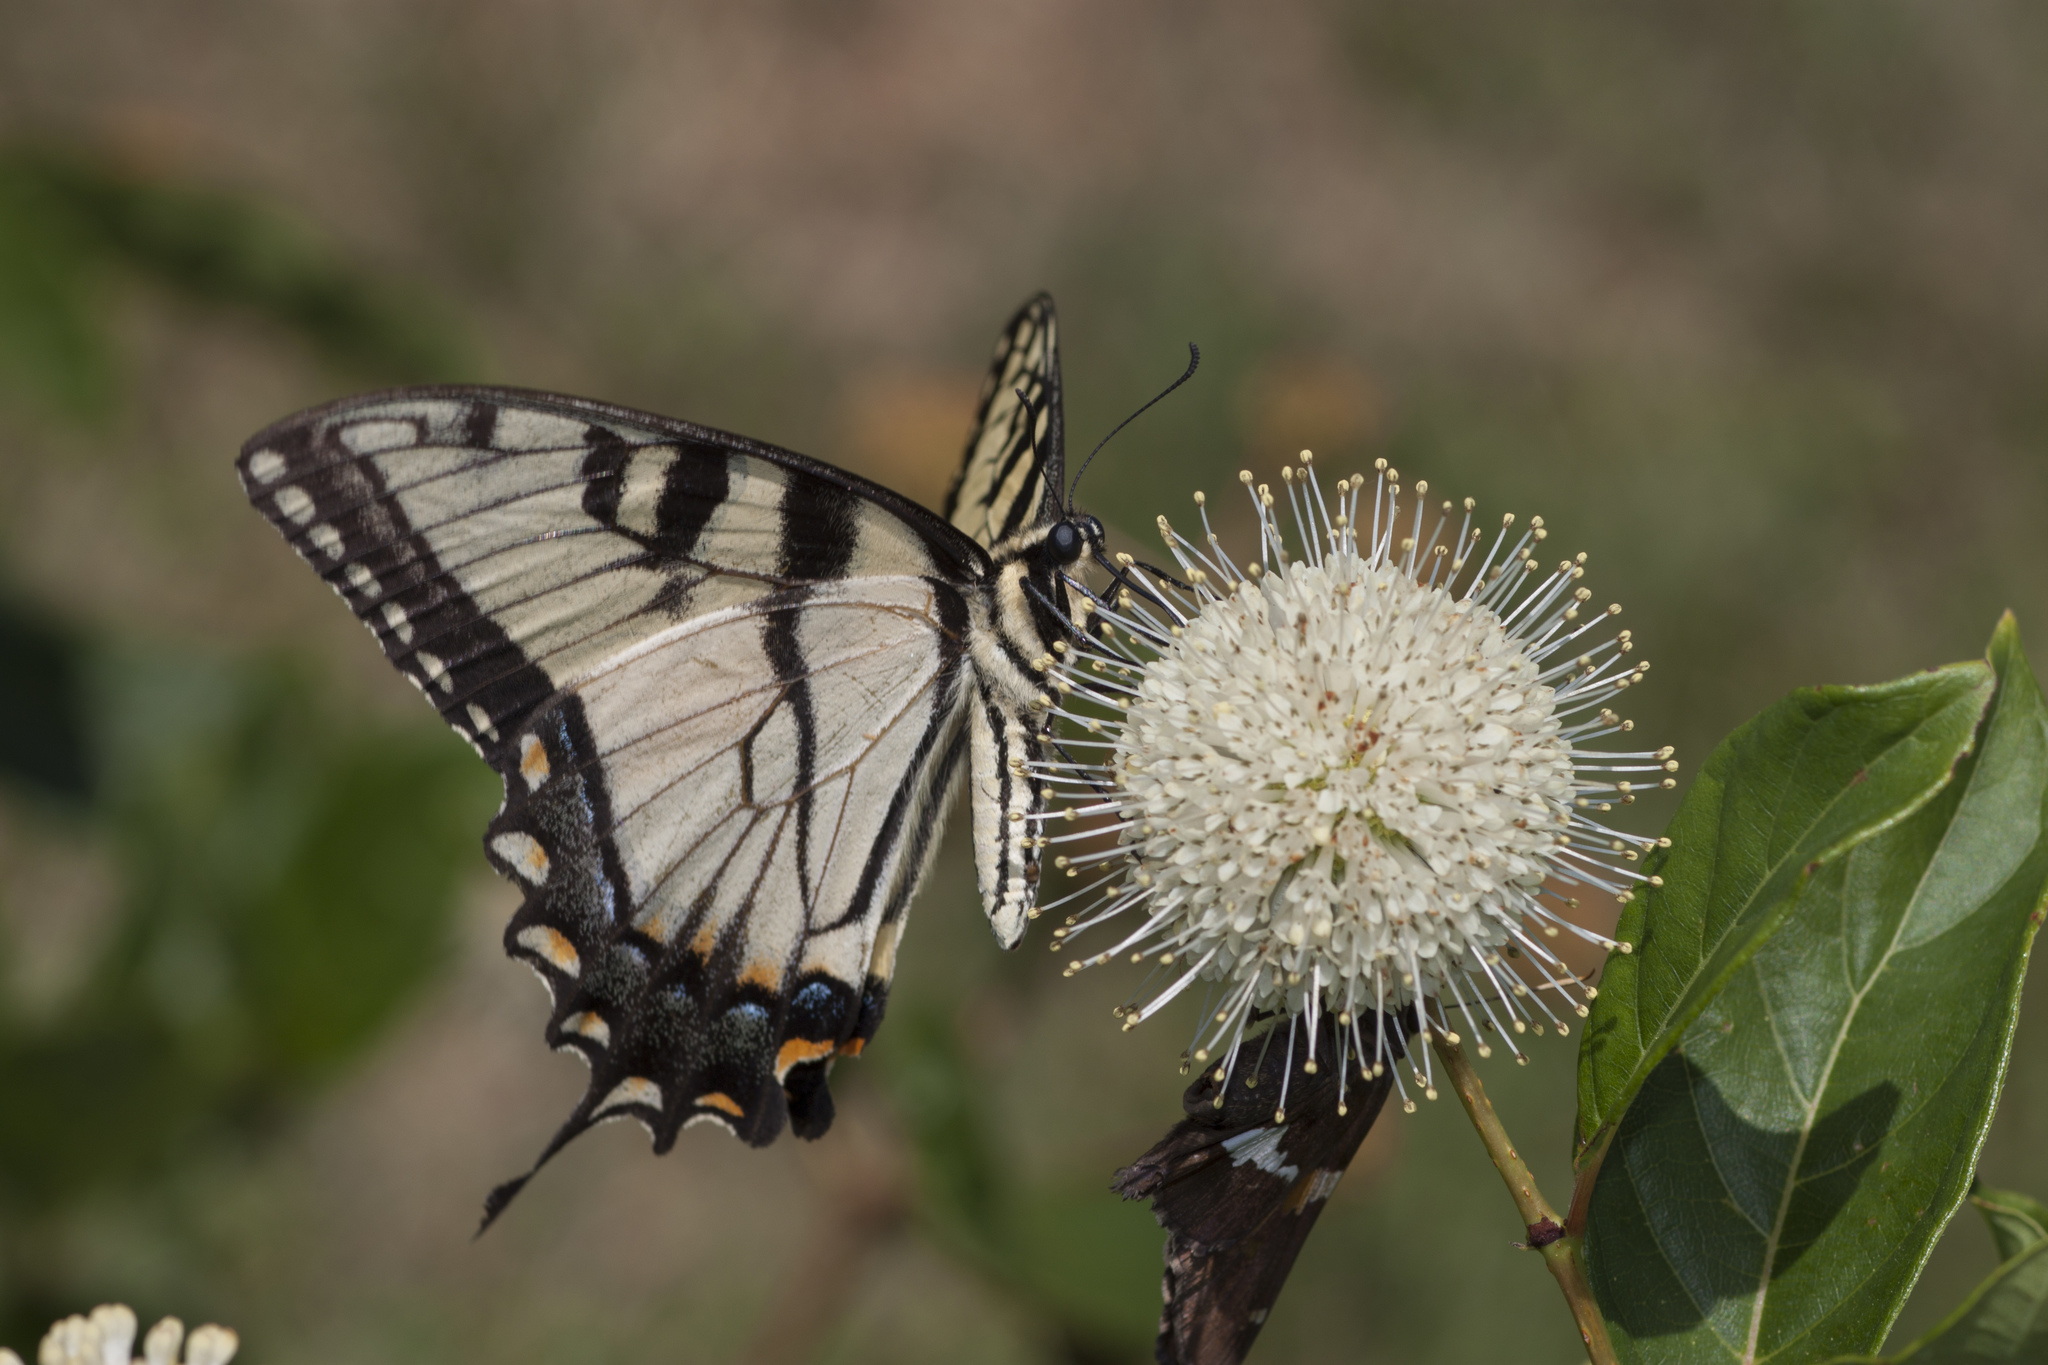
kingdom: Animalia
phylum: Arthropoda
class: Insecta
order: Lepidoptera
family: Papilionidae
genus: Papilio
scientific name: Papilio glaucus
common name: Tiger swallowtail
